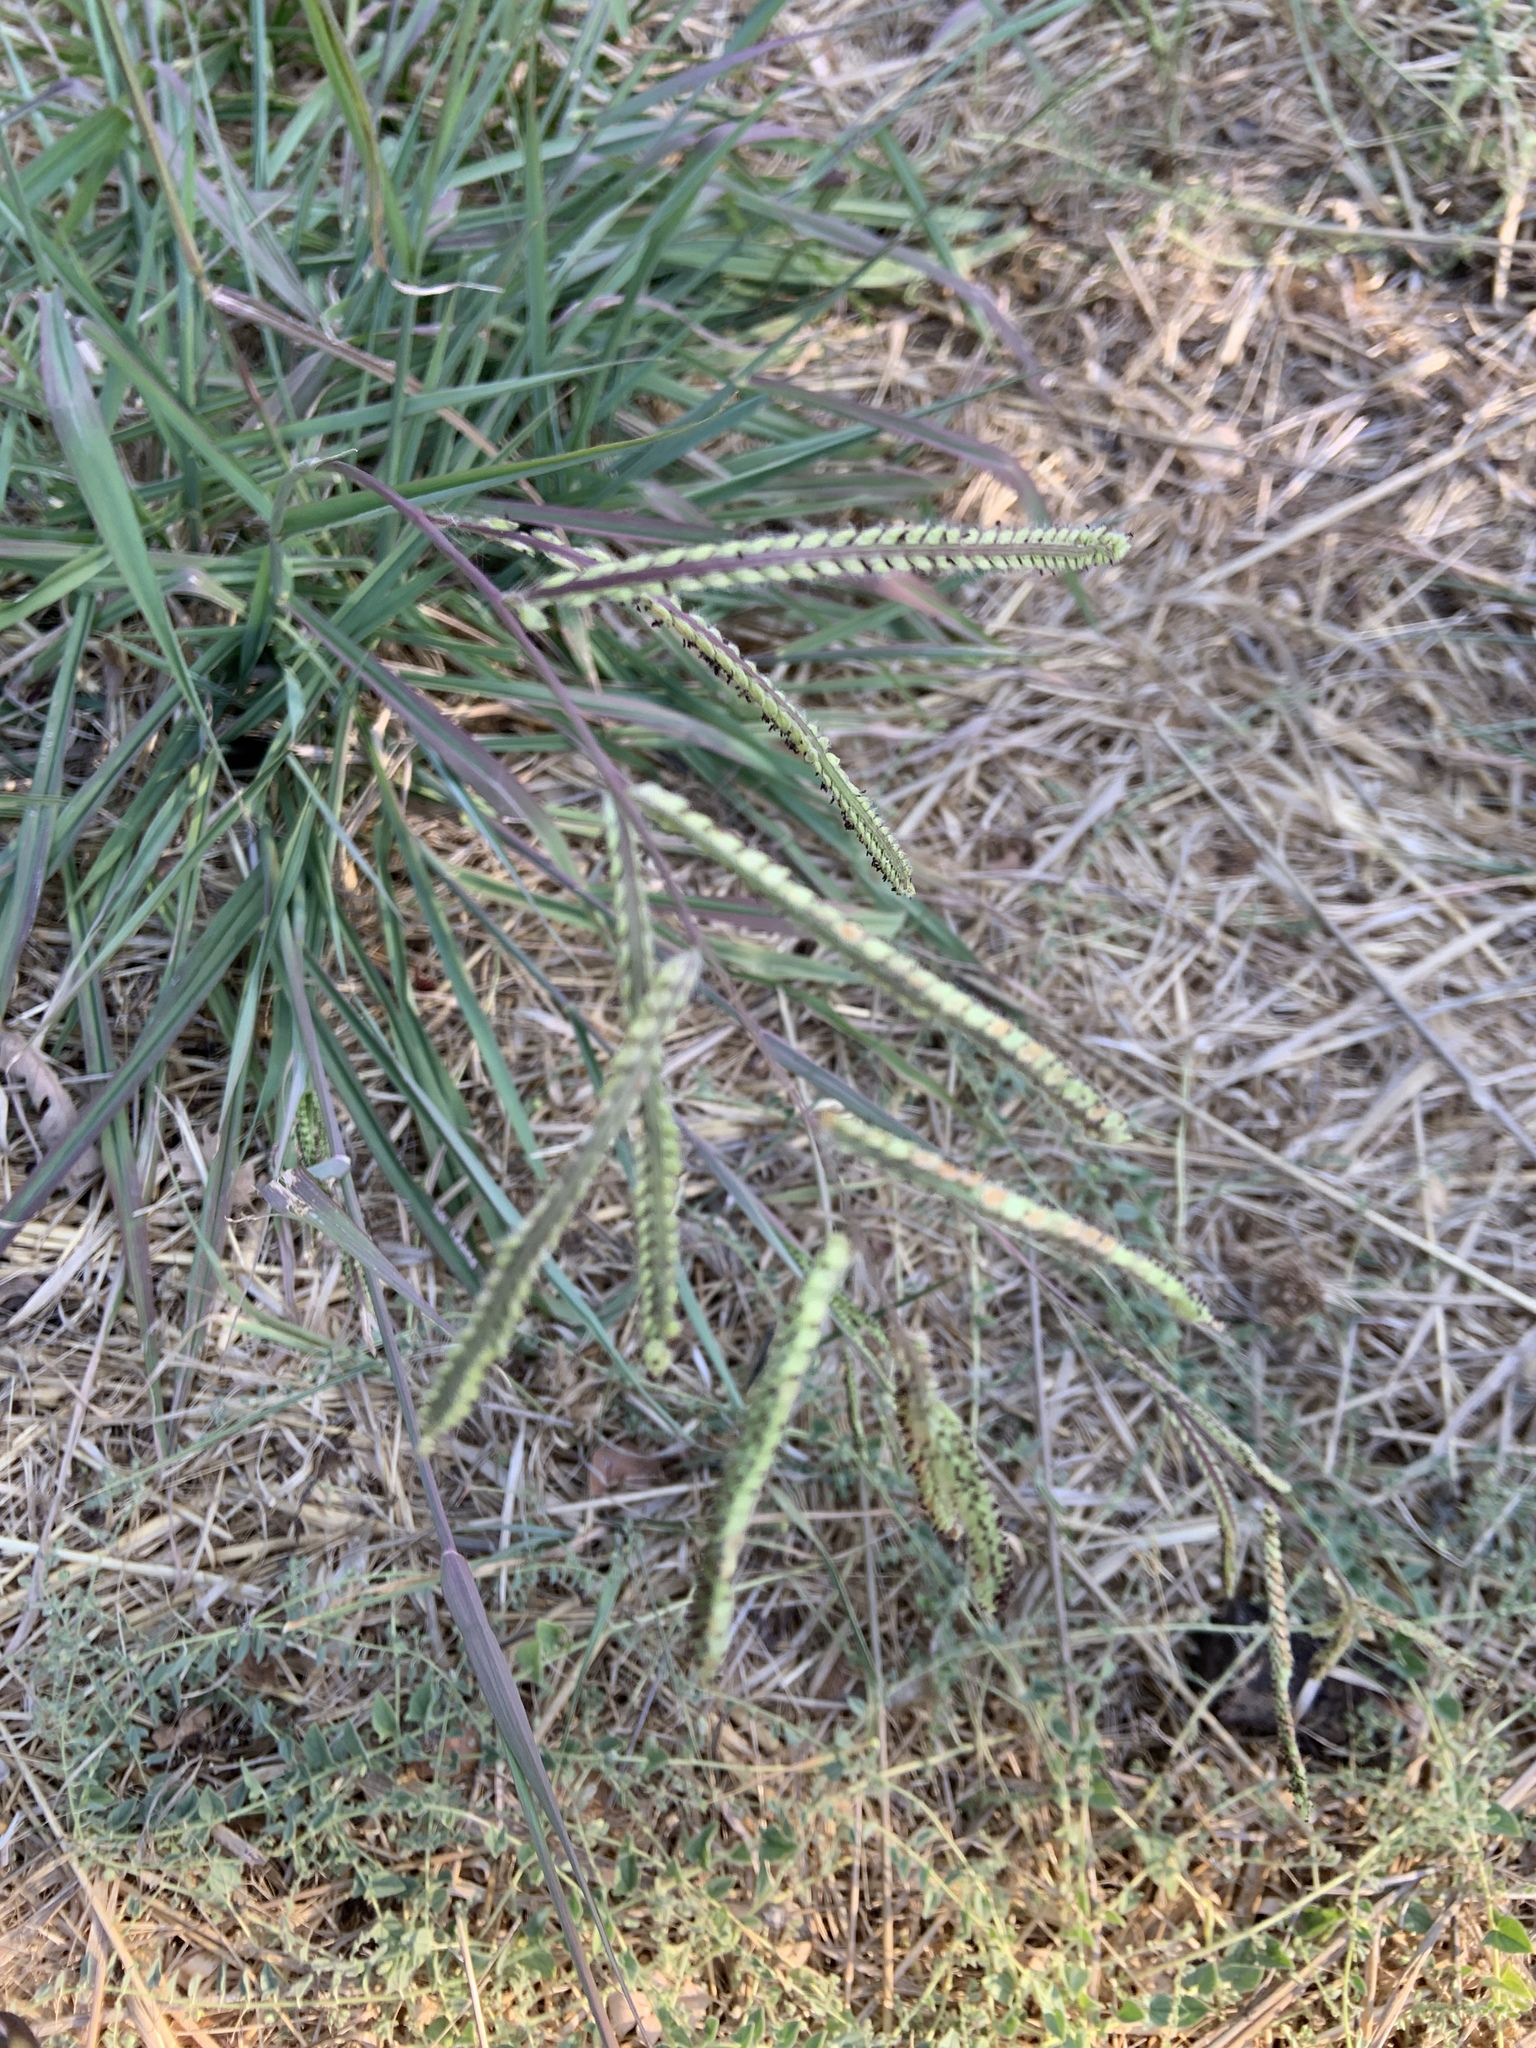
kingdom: Plantae
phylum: Tracheophyta
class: Liliopsida
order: Poales
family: Poaceae
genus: Paspalum
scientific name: Paspalum dilatatum
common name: Dallisgrass
